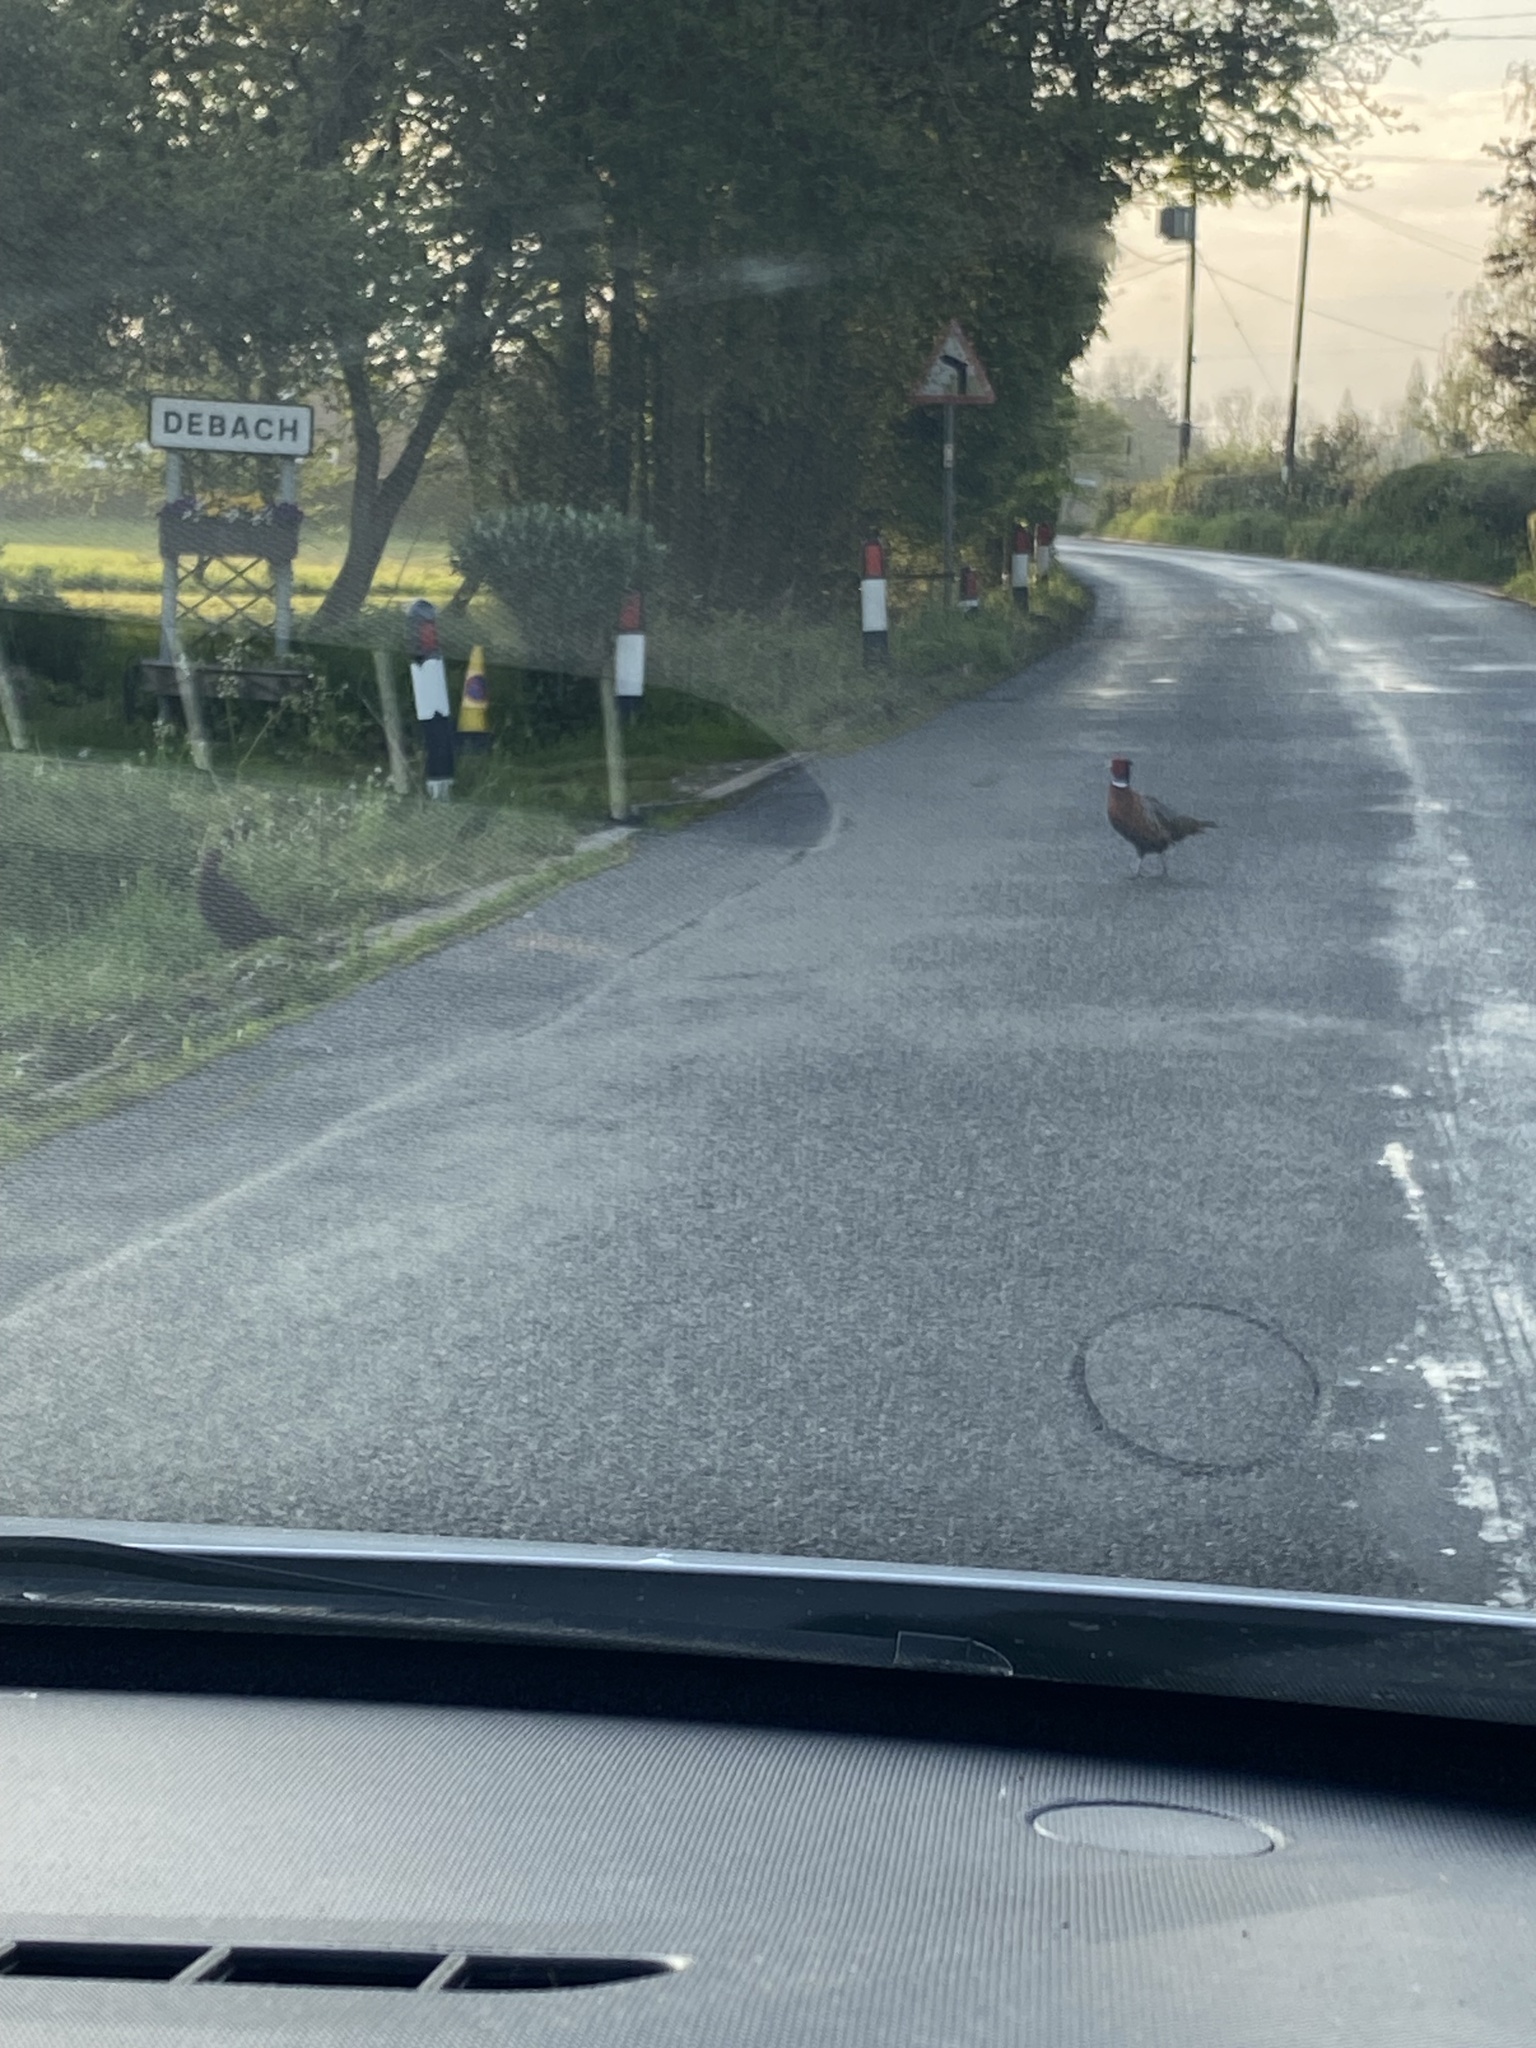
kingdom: Animalia
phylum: Chordata
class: Aves
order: Galliformes
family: Phasianidae
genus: Phasianus
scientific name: Phasianus colchicus
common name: Common pheasant
